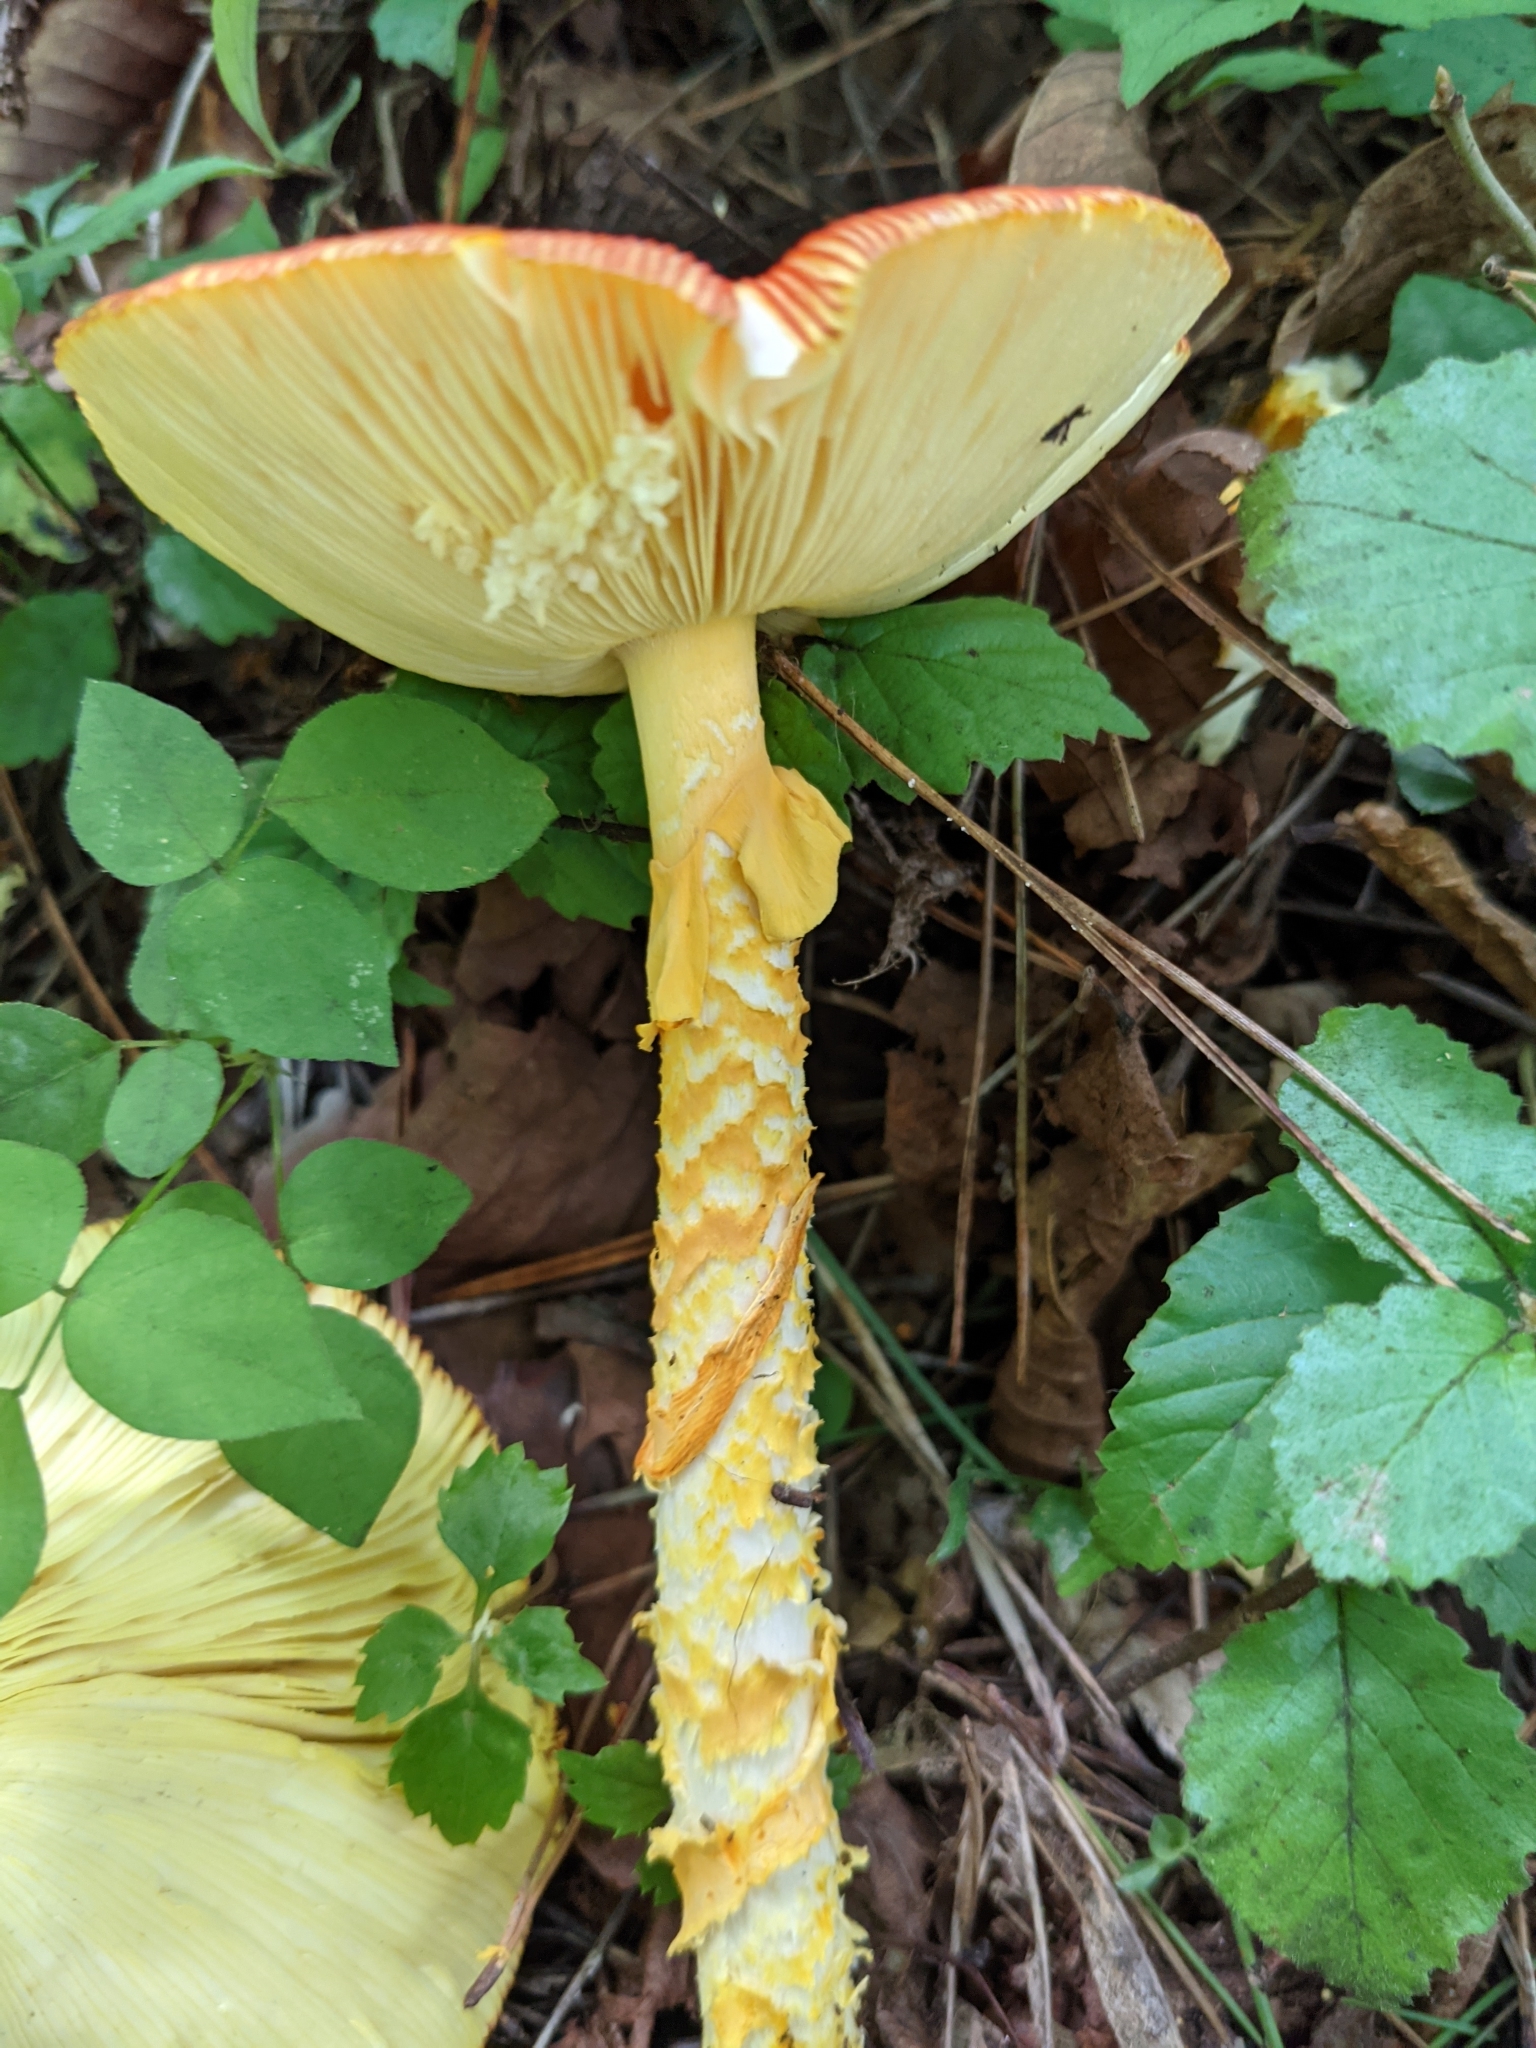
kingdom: Fungi
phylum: Basidiomycota
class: Agaricomycetes
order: Agaricales
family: Amanitaceae
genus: Amanita
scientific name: Amanita caesareoides
